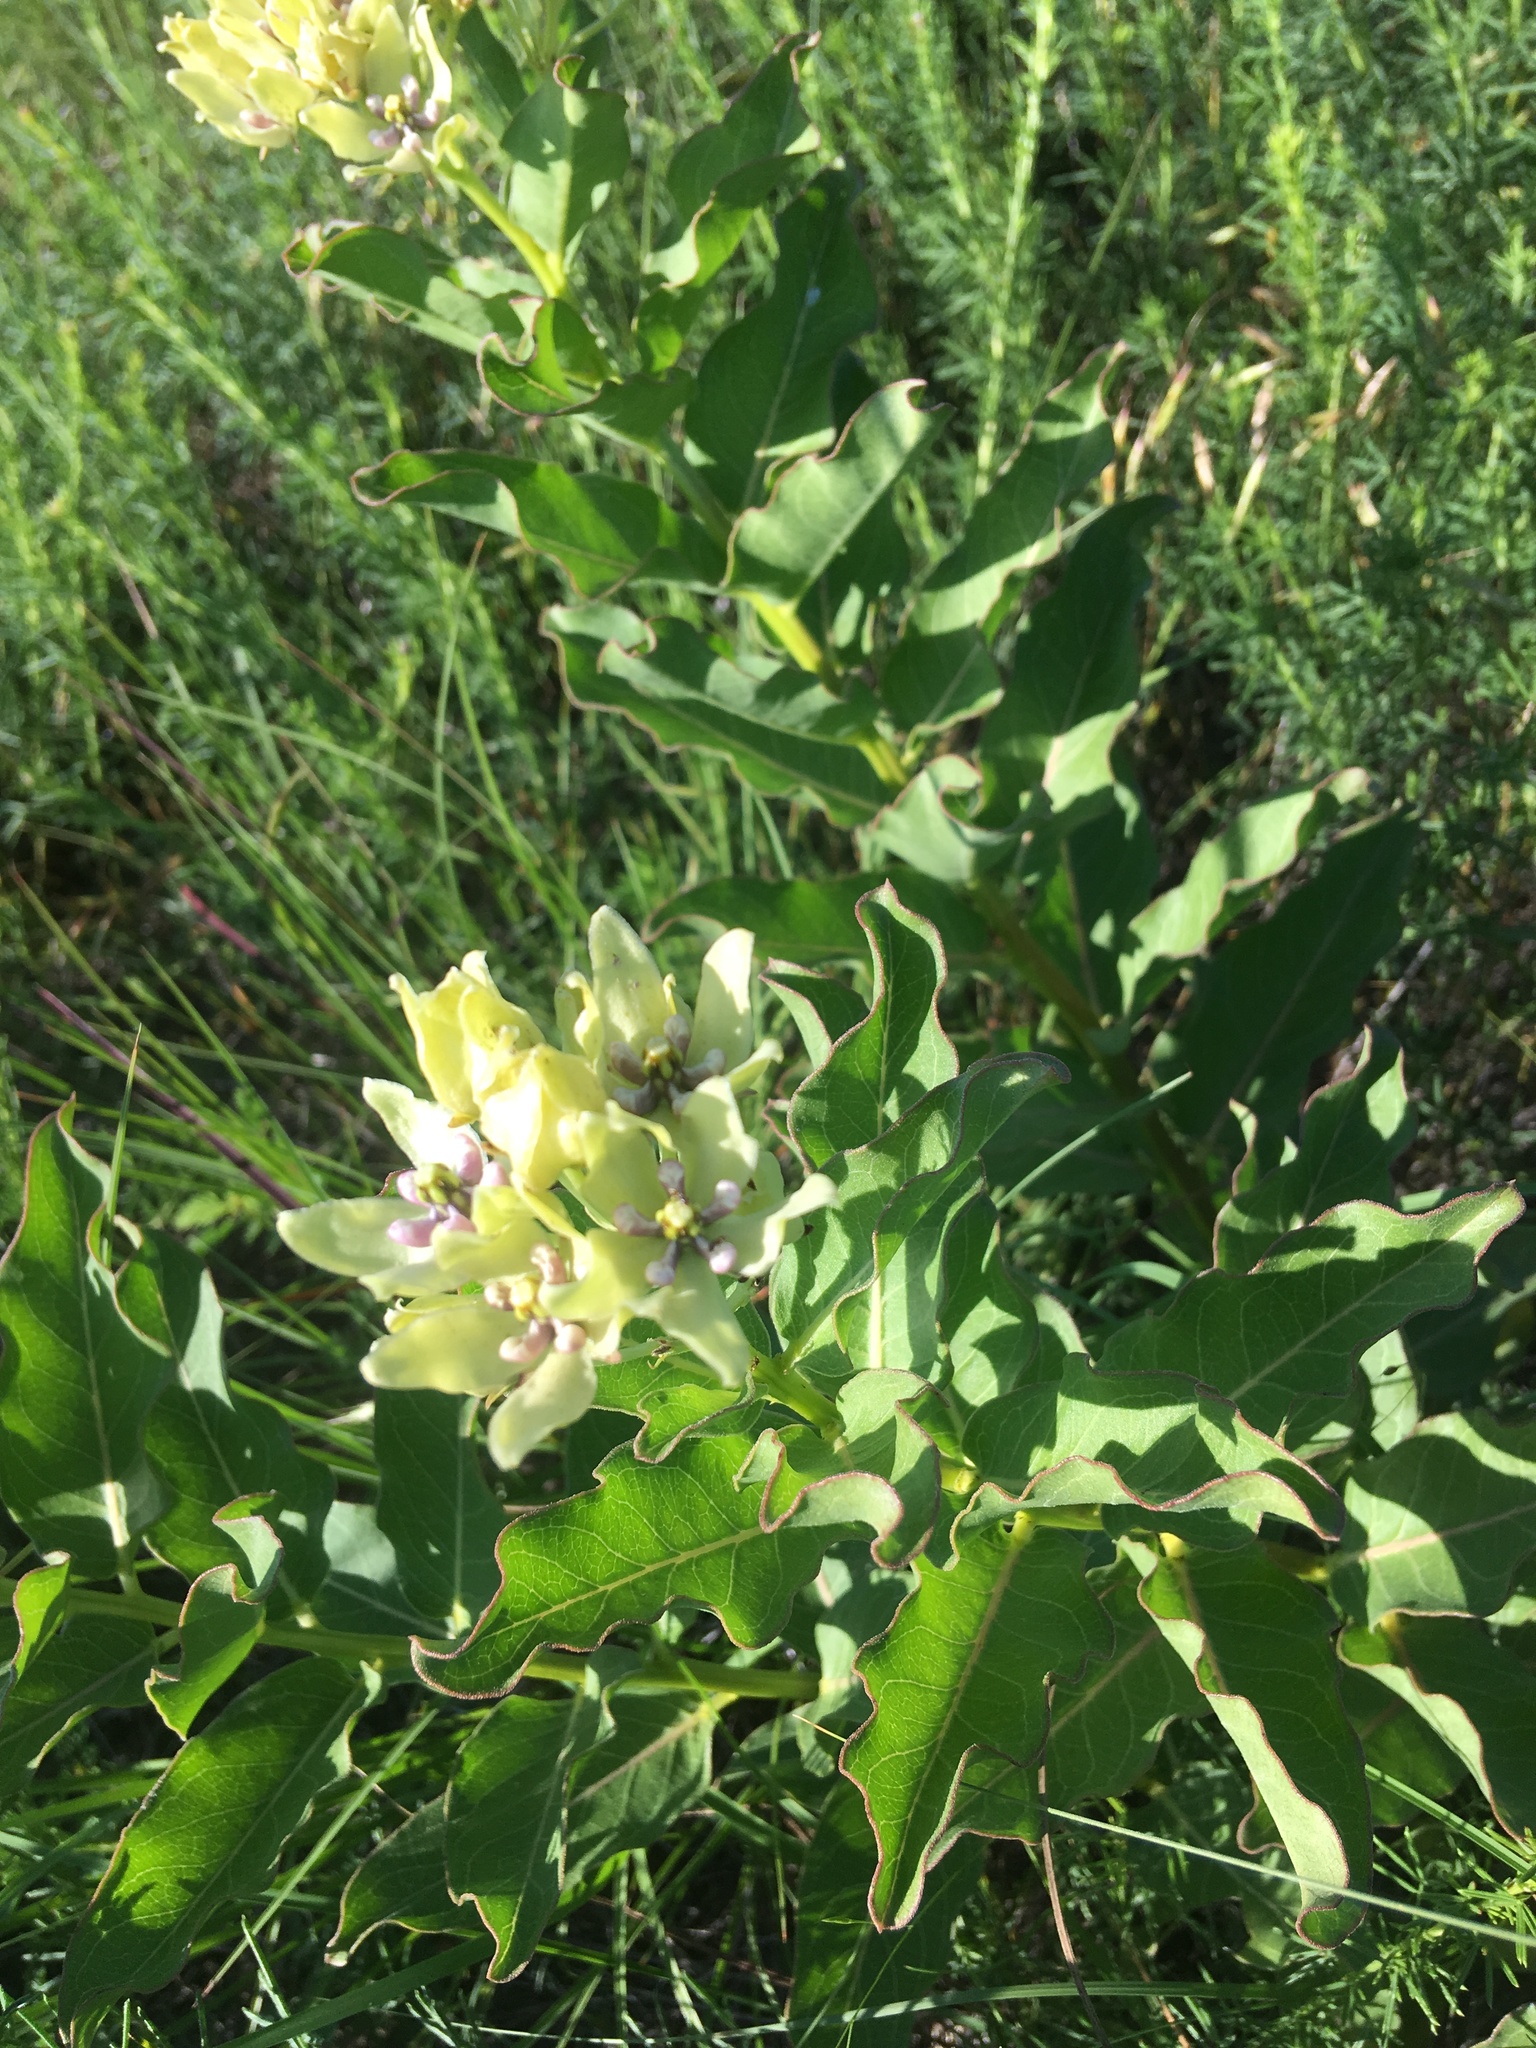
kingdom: Plantae
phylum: Tracheophyta
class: Magnoliopsida
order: Gentianales
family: Apocynaceae
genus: Asclepias
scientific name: Asclepias viridis
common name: Antelope-horns
